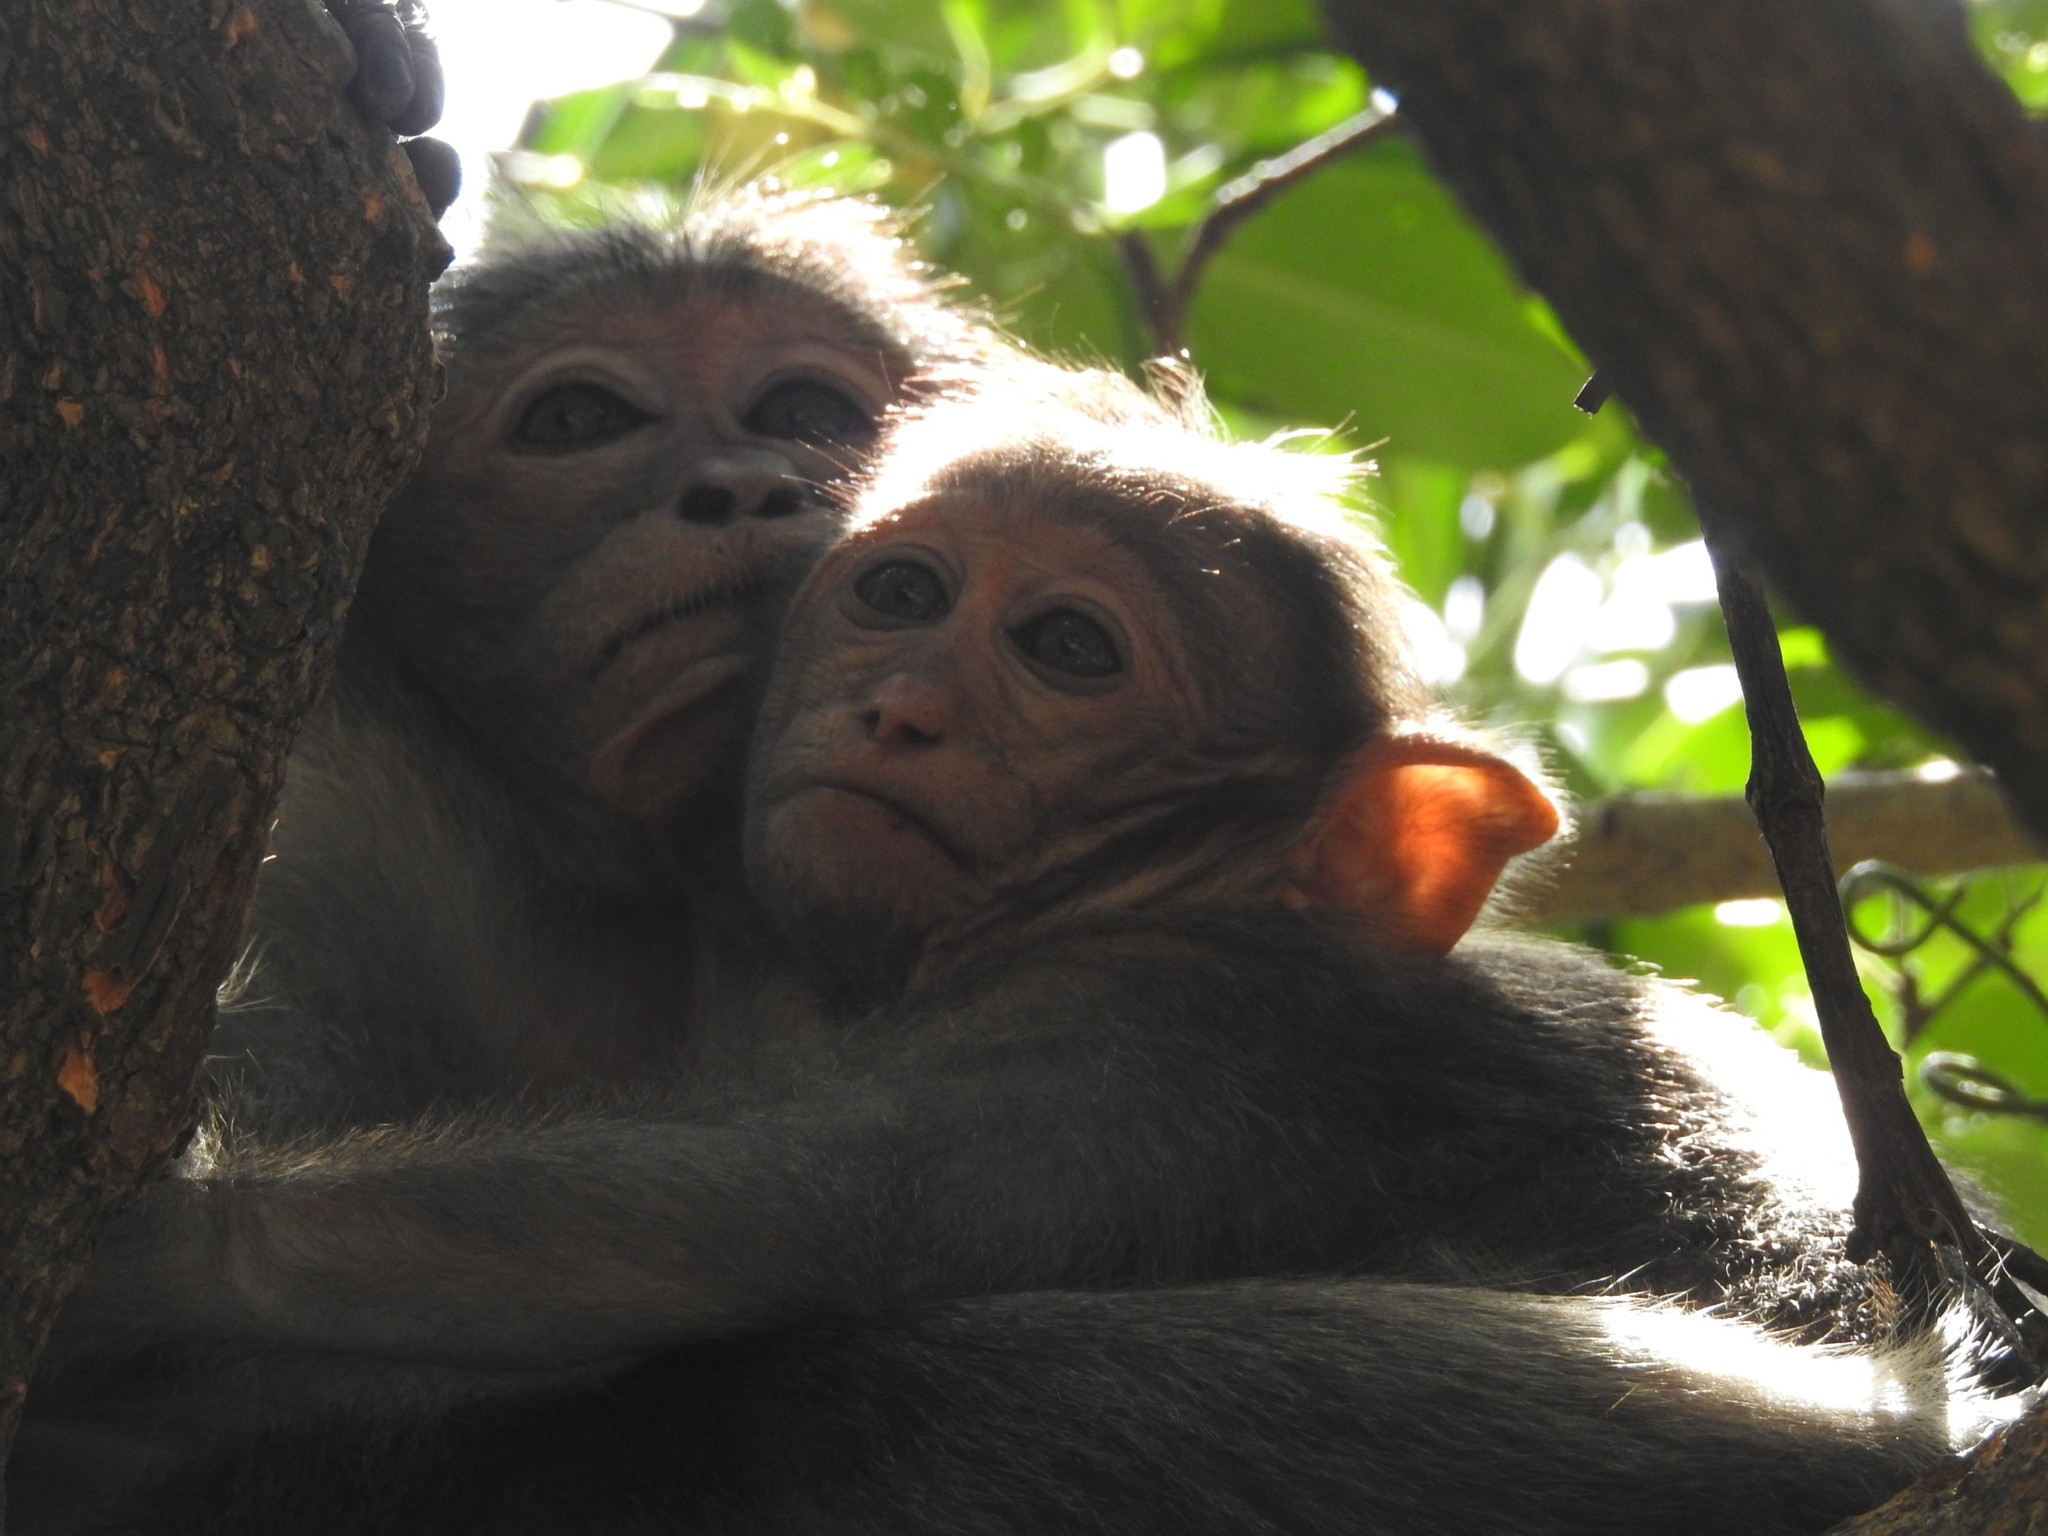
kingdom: Animalia
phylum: Chordata
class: Mammalia
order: Primates
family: Cercopithecidae
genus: Macaca
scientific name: Macaca radiata
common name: Bonnet macaque
